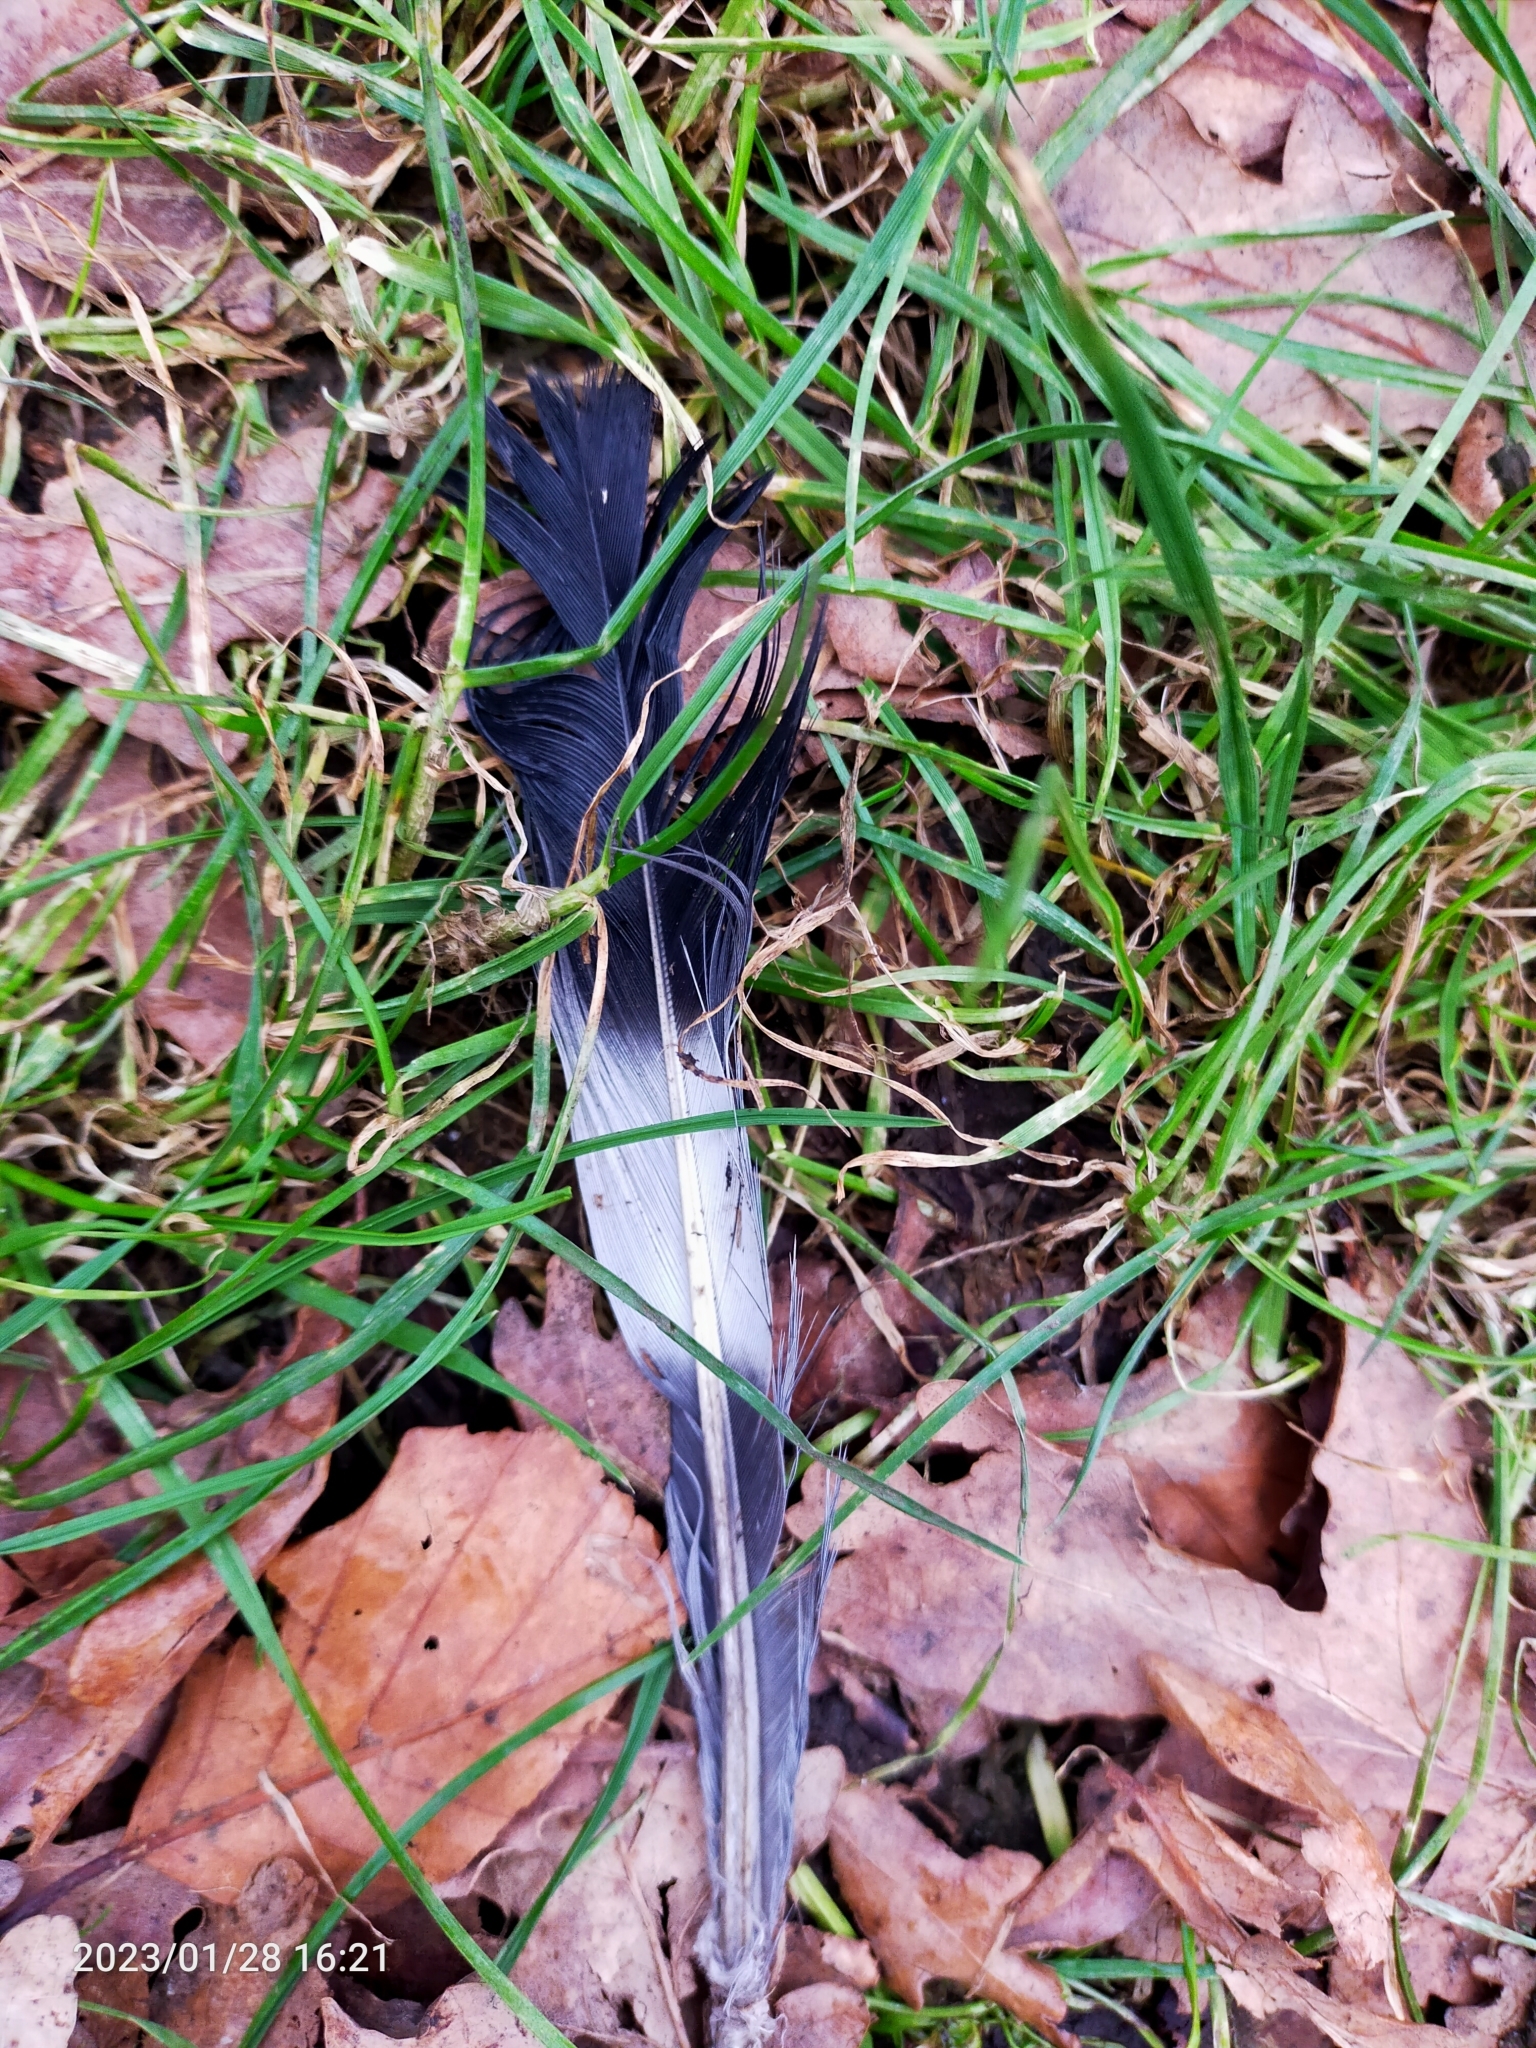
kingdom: Animalia
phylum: Chordata
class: Aves
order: Columbiformes
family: Columbidae
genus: Columba
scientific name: Columba palumbus
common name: Common wood pigeon
